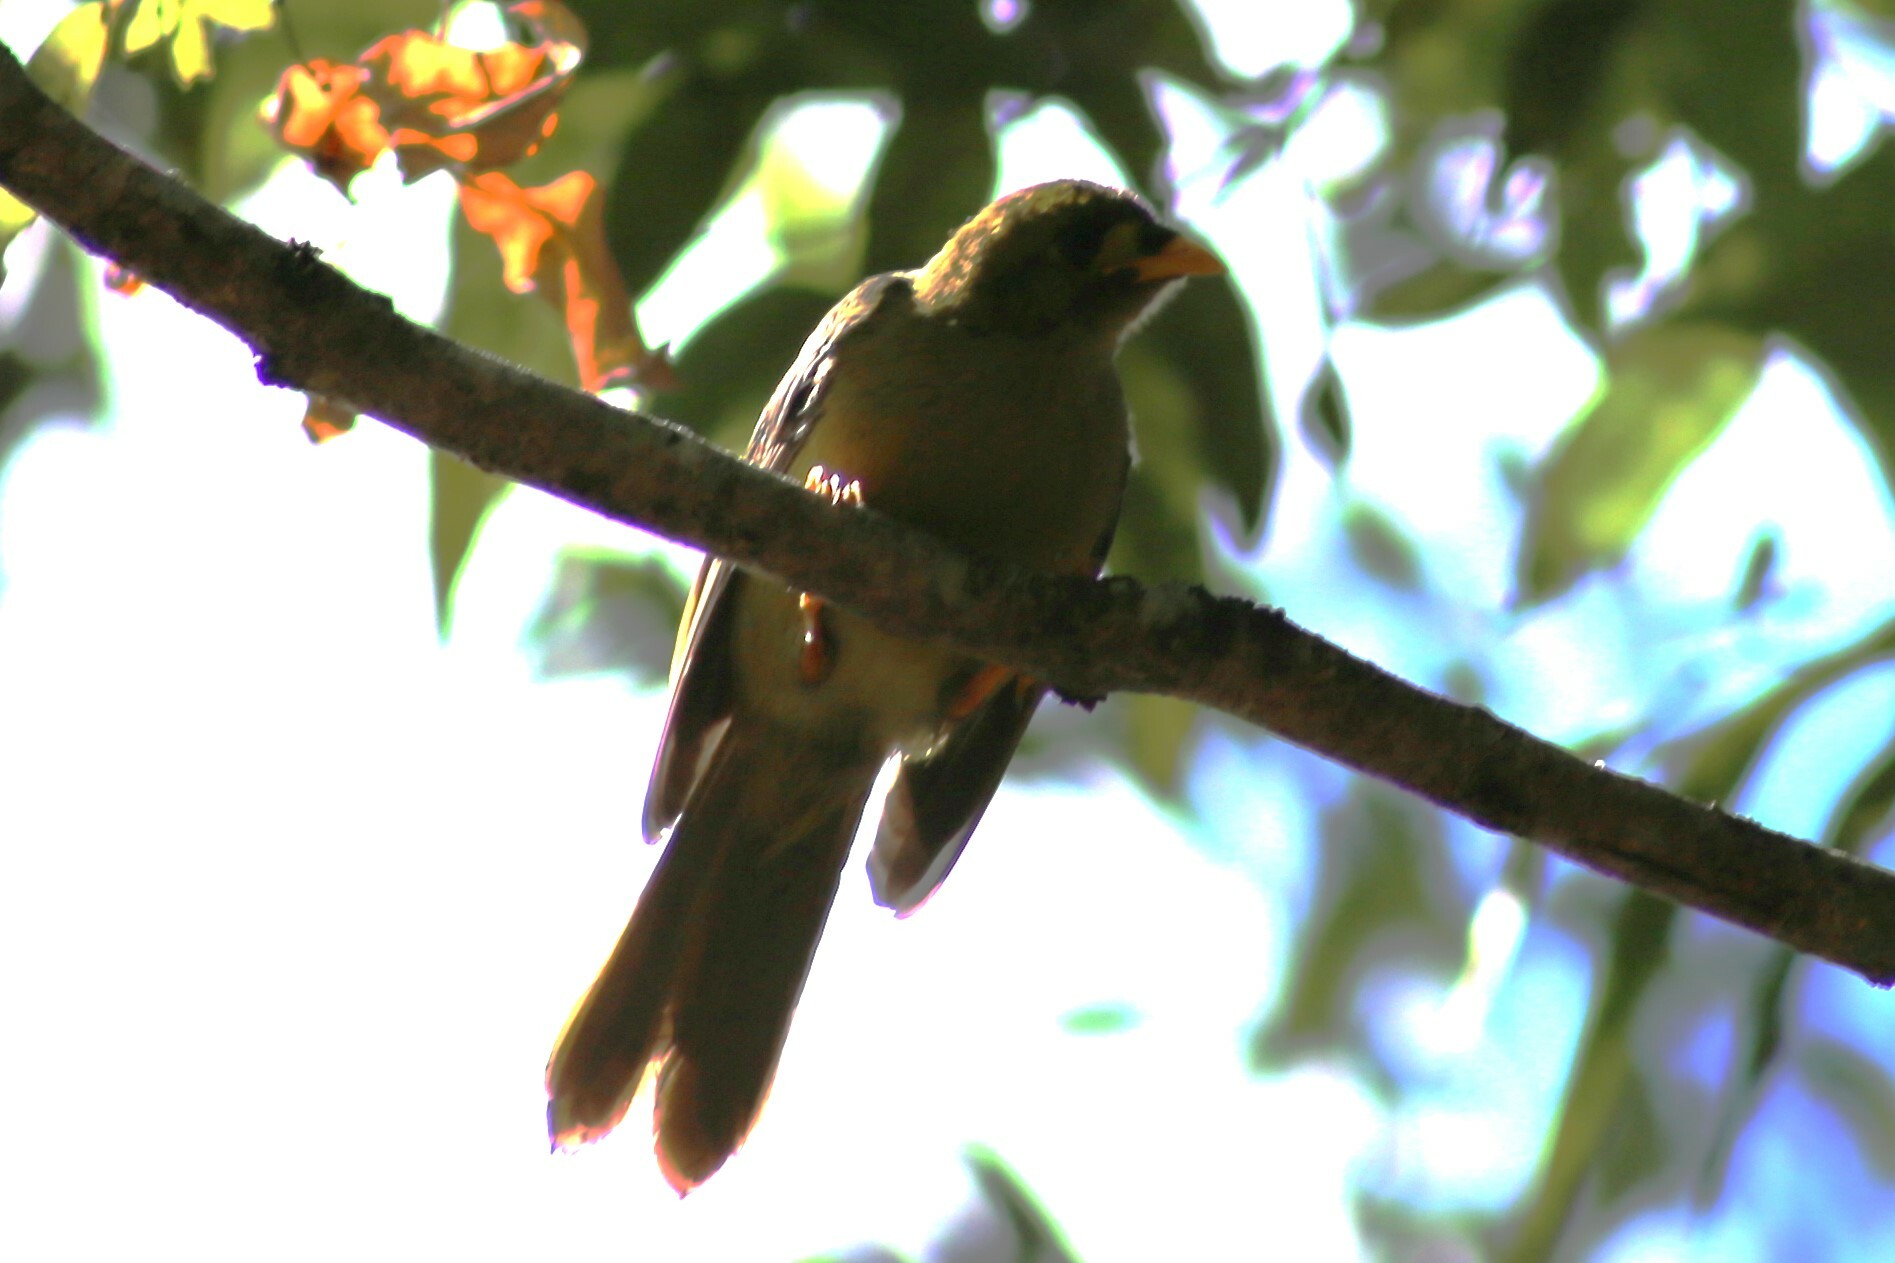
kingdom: Animalia
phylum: Chordata
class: Aves
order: Passeriformes
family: Meliphagidae
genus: Manorina
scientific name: Manorina melanophrys
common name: Bell miner
